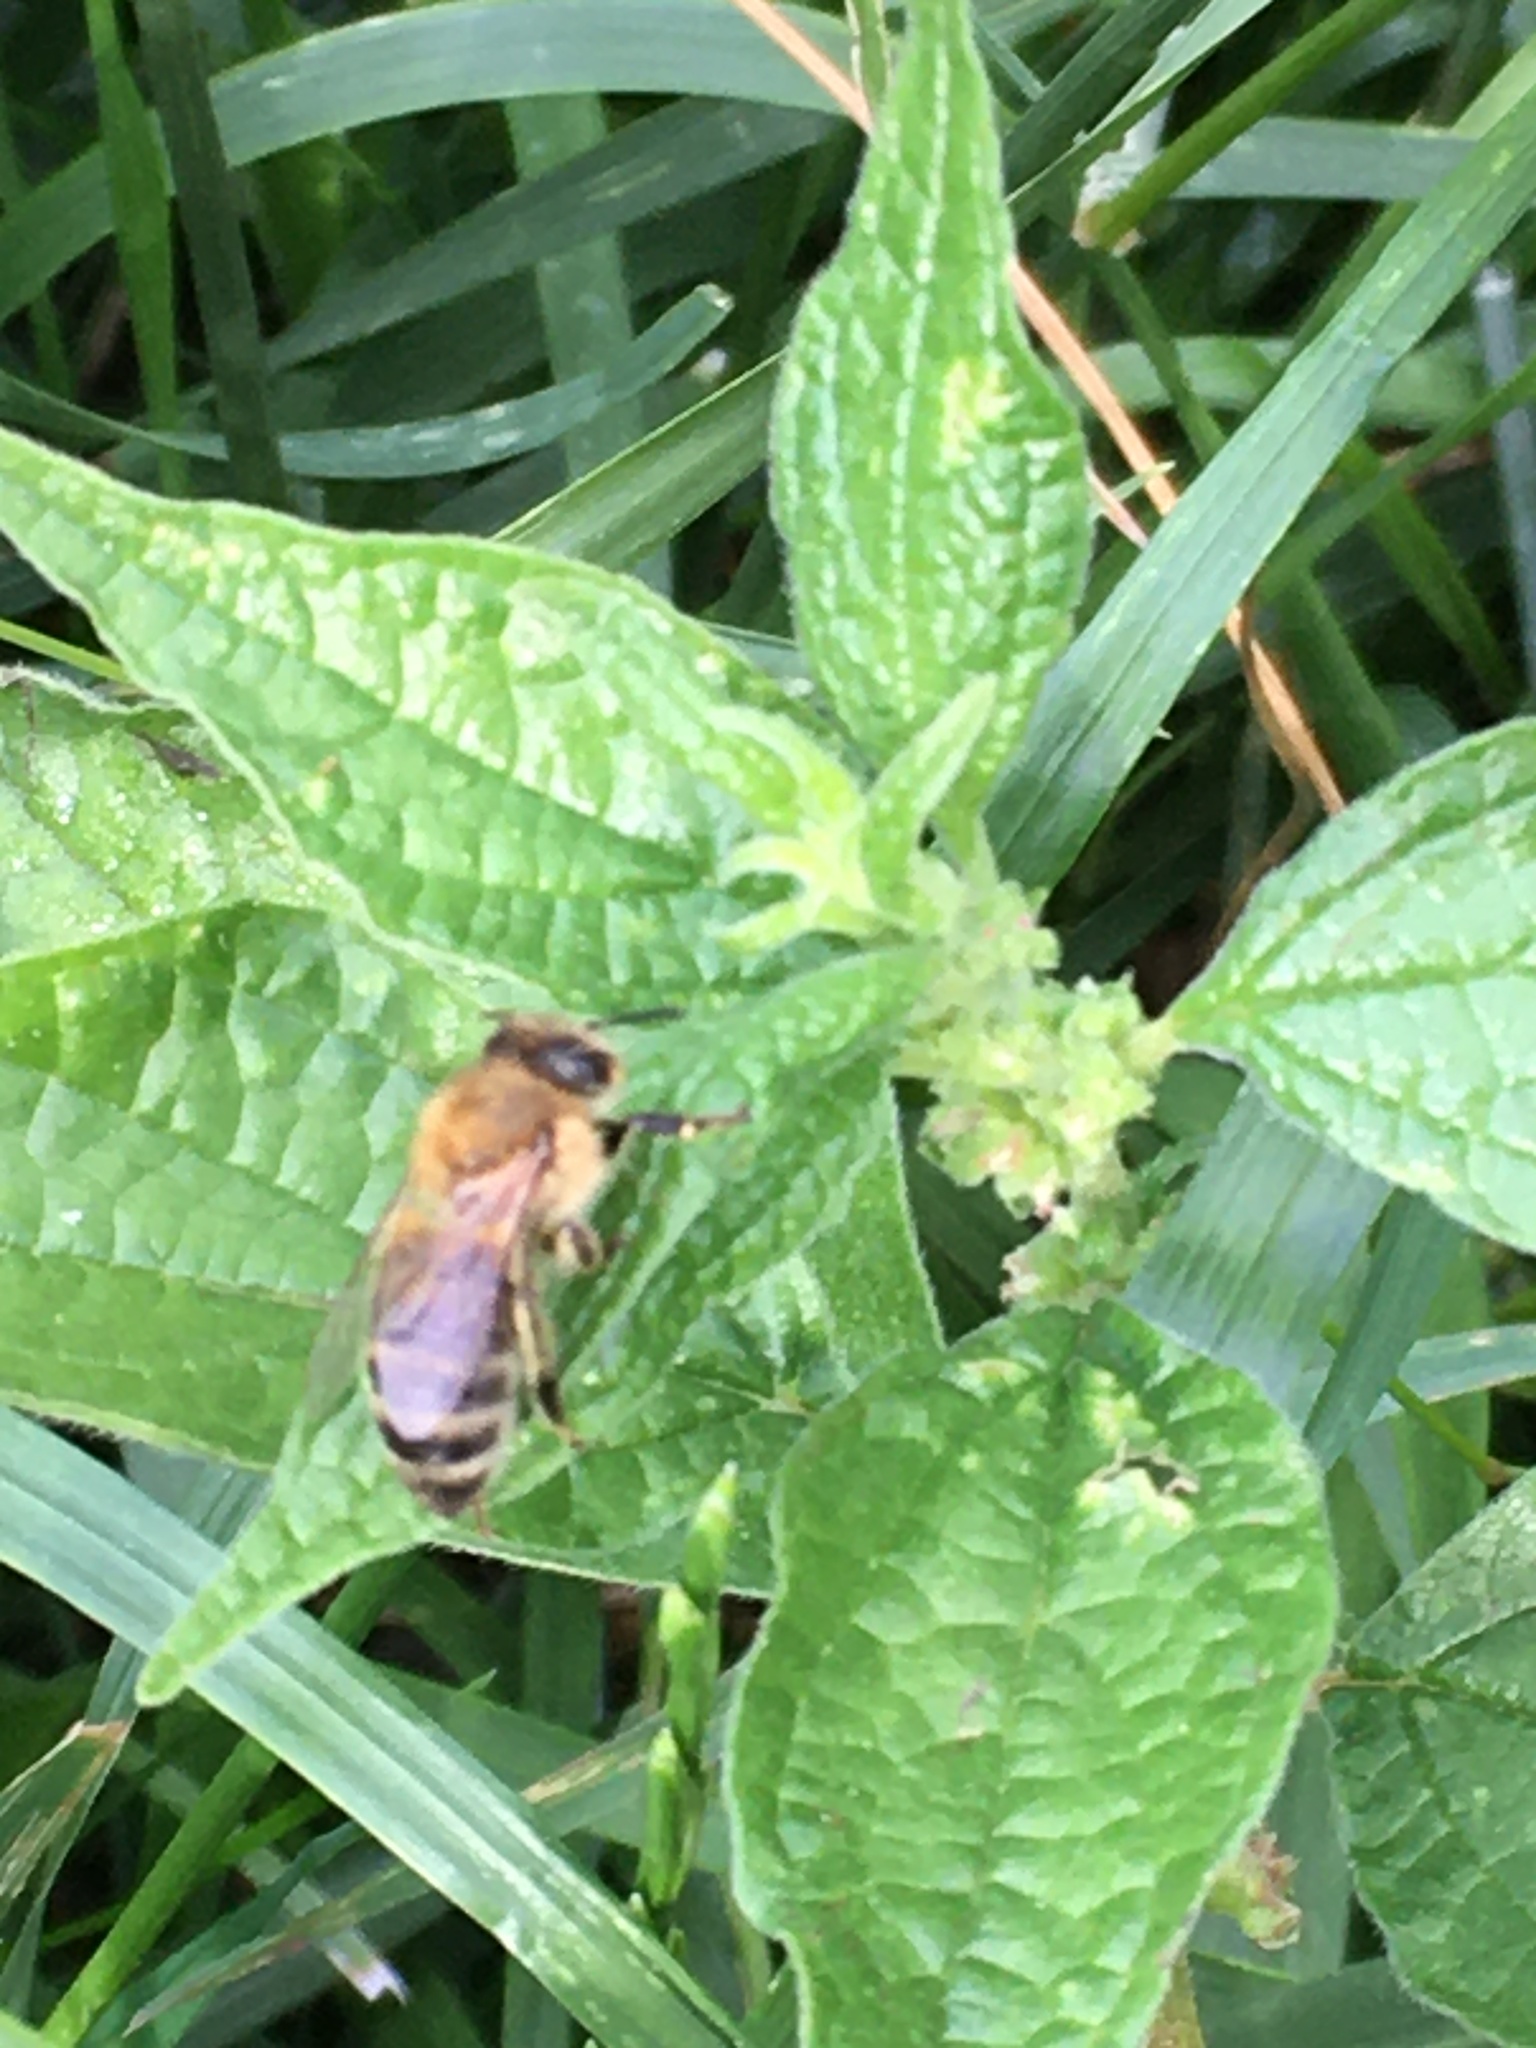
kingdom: Animalia
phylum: Arthropoda
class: Insecta
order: Hymenoptera
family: Apidae
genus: Apis
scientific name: Apis mellifera
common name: Honey bee
